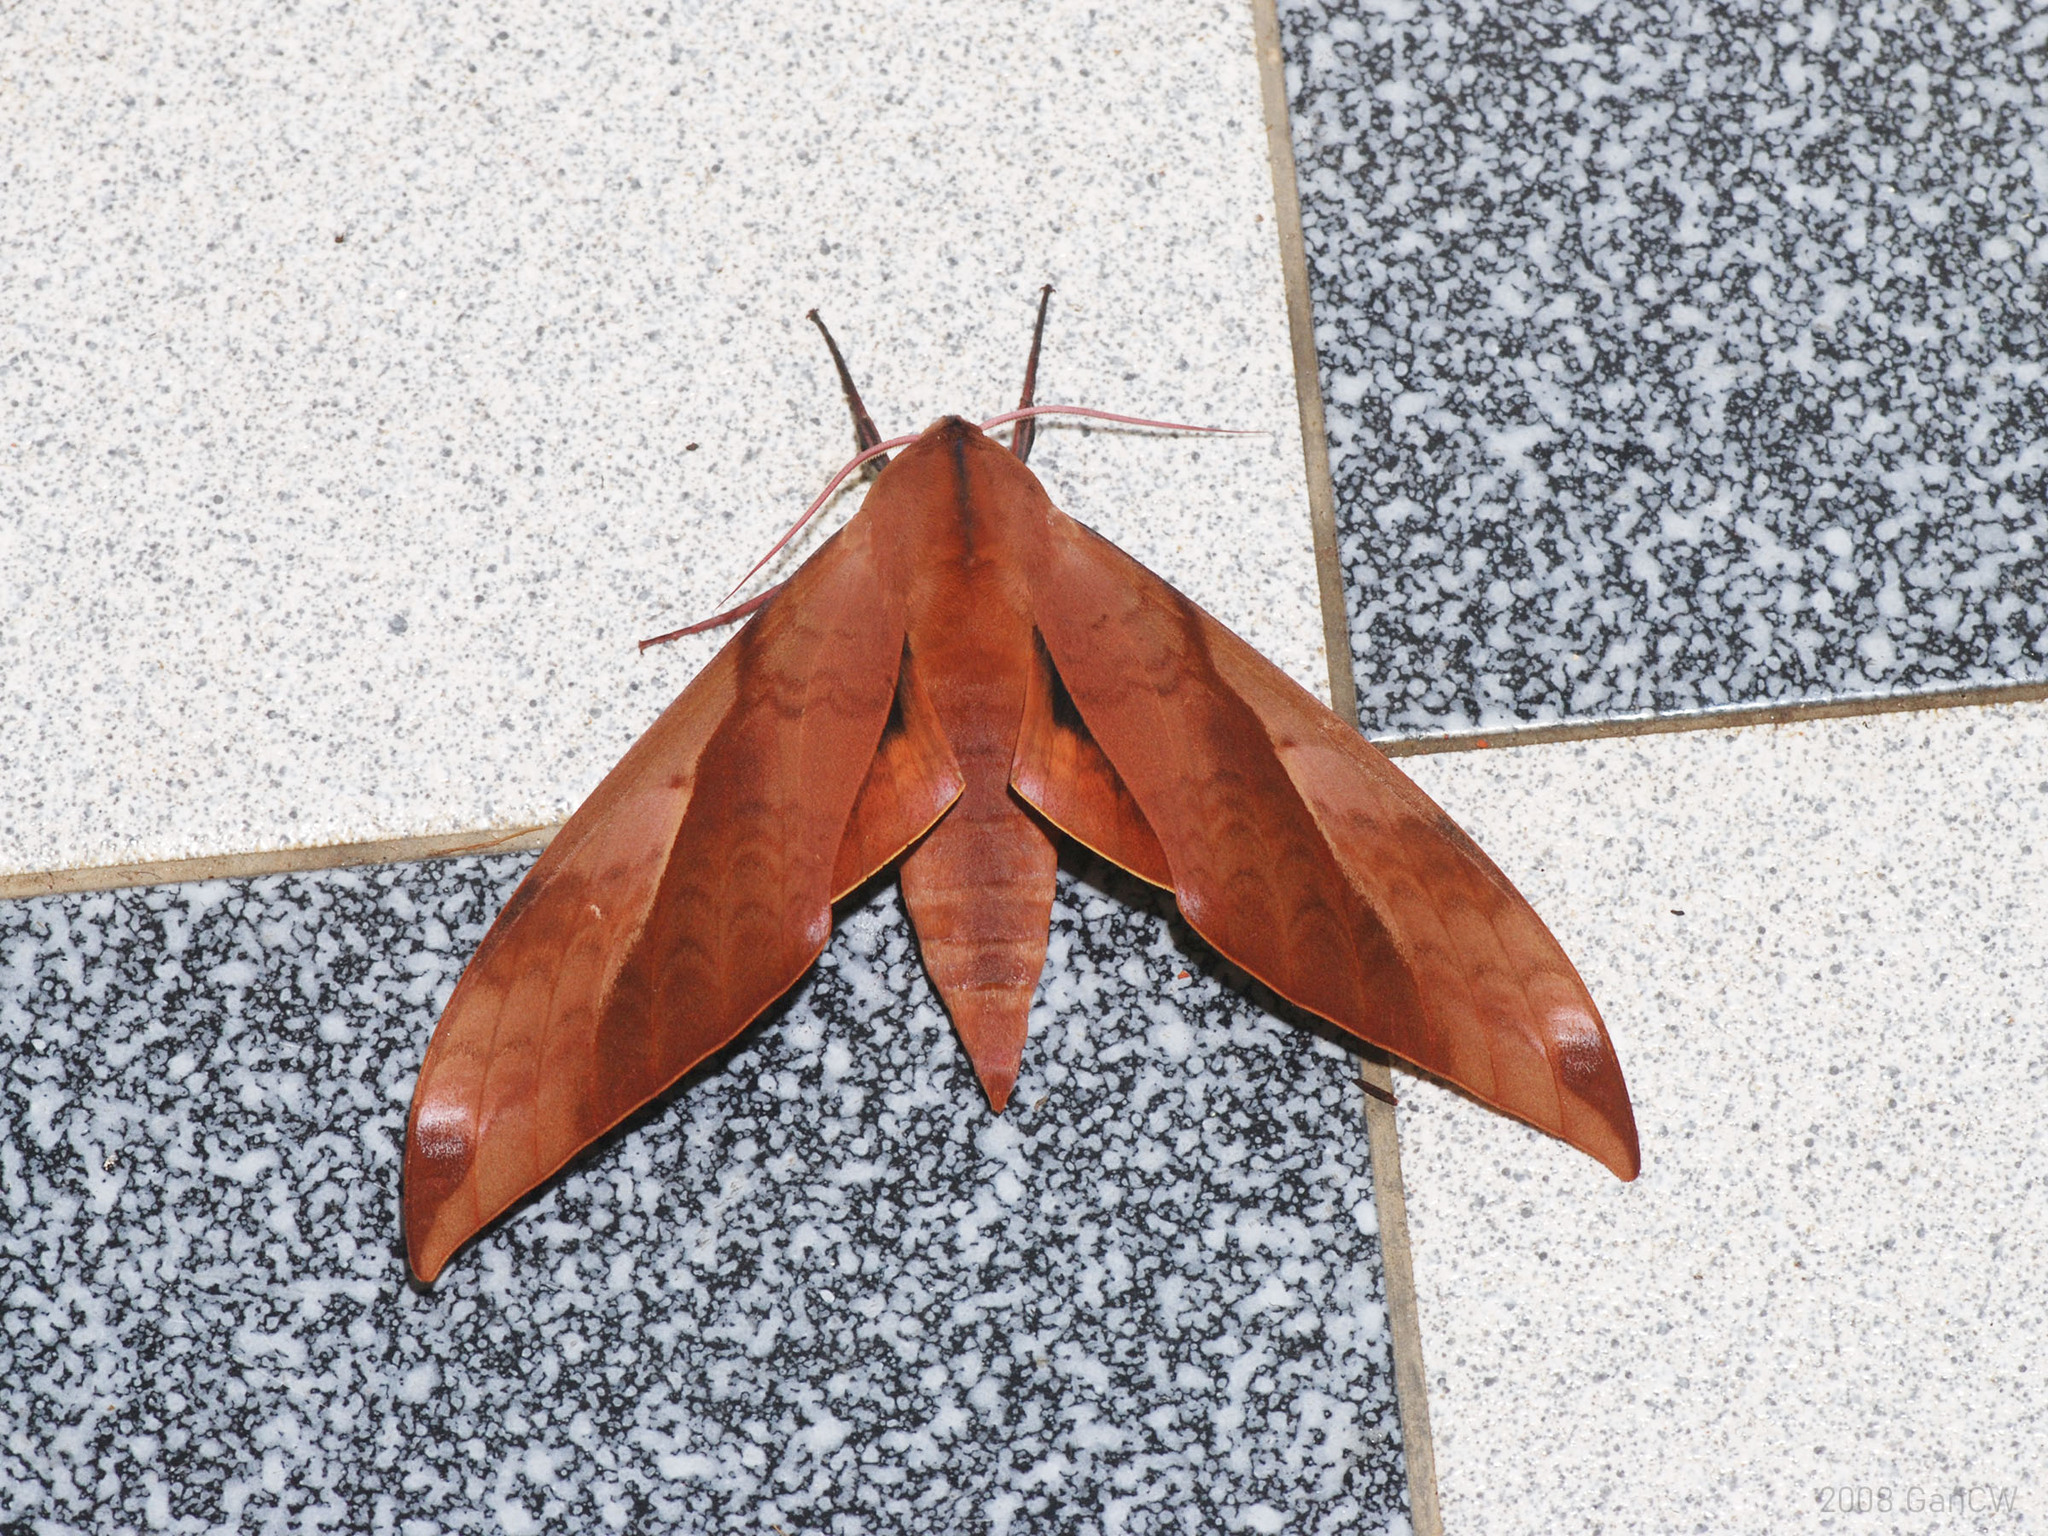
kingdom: Animalia
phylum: Arthropoda
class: Insecta
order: Lepidoptera
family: Sphingidae
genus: Clanis
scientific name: Clanis undulosa
